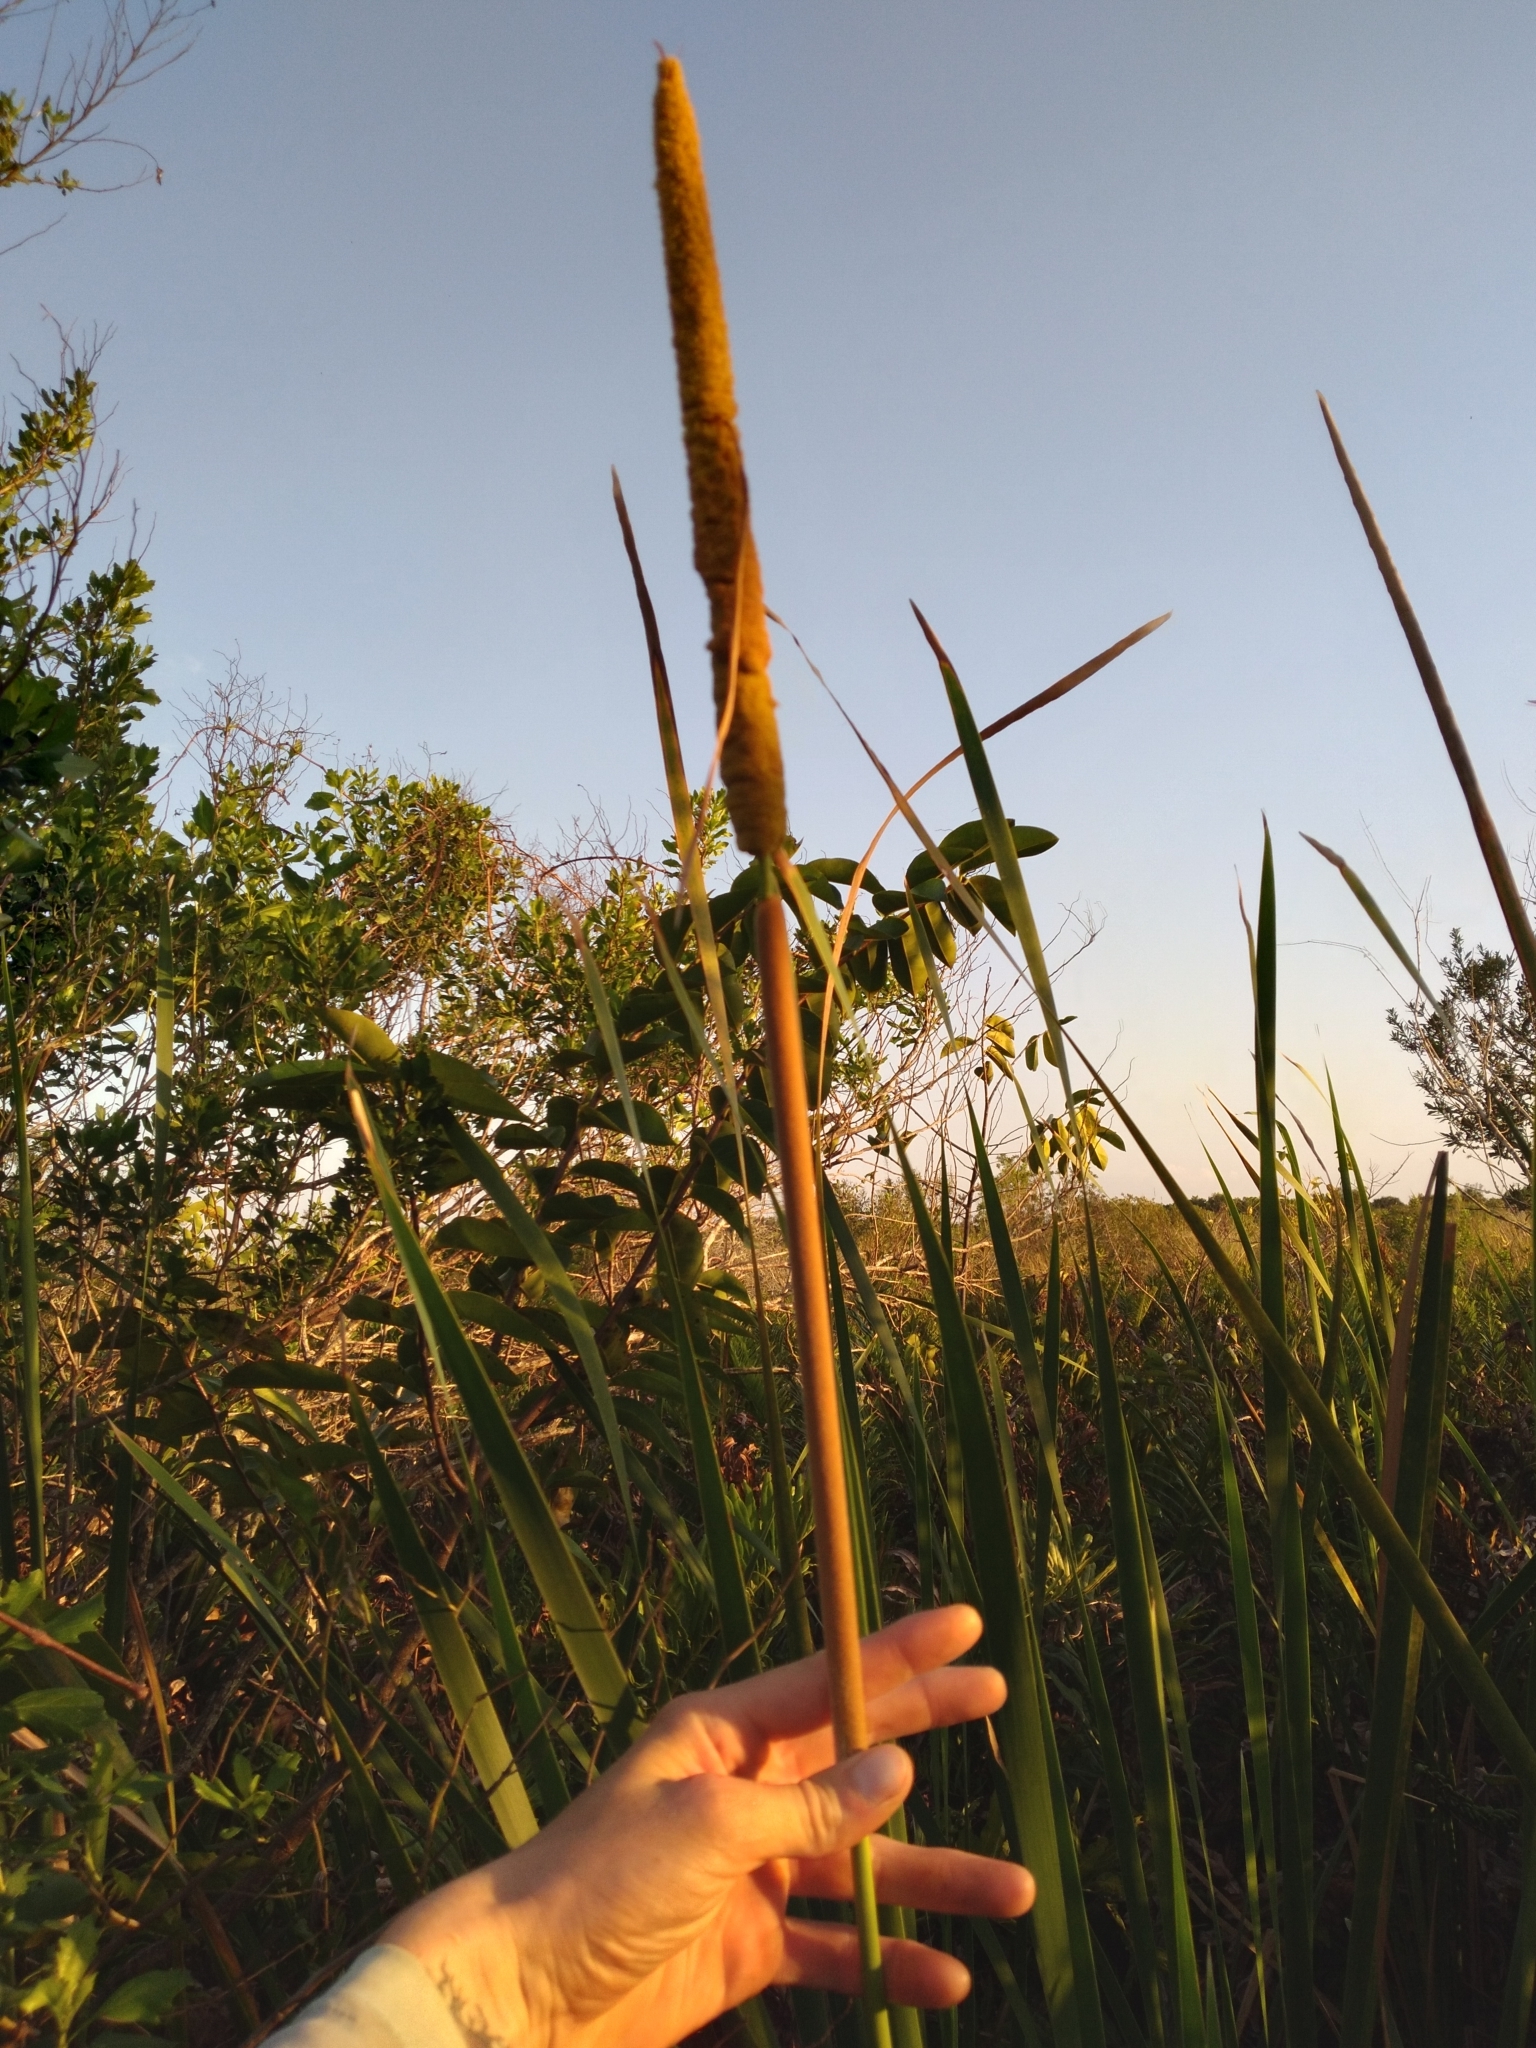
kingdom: Plantae
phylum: Tracheophyta
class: Liliopsida
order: Poales
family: Typhaceae
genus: Typha
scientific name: Typha domingensis
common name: Southern cattail
